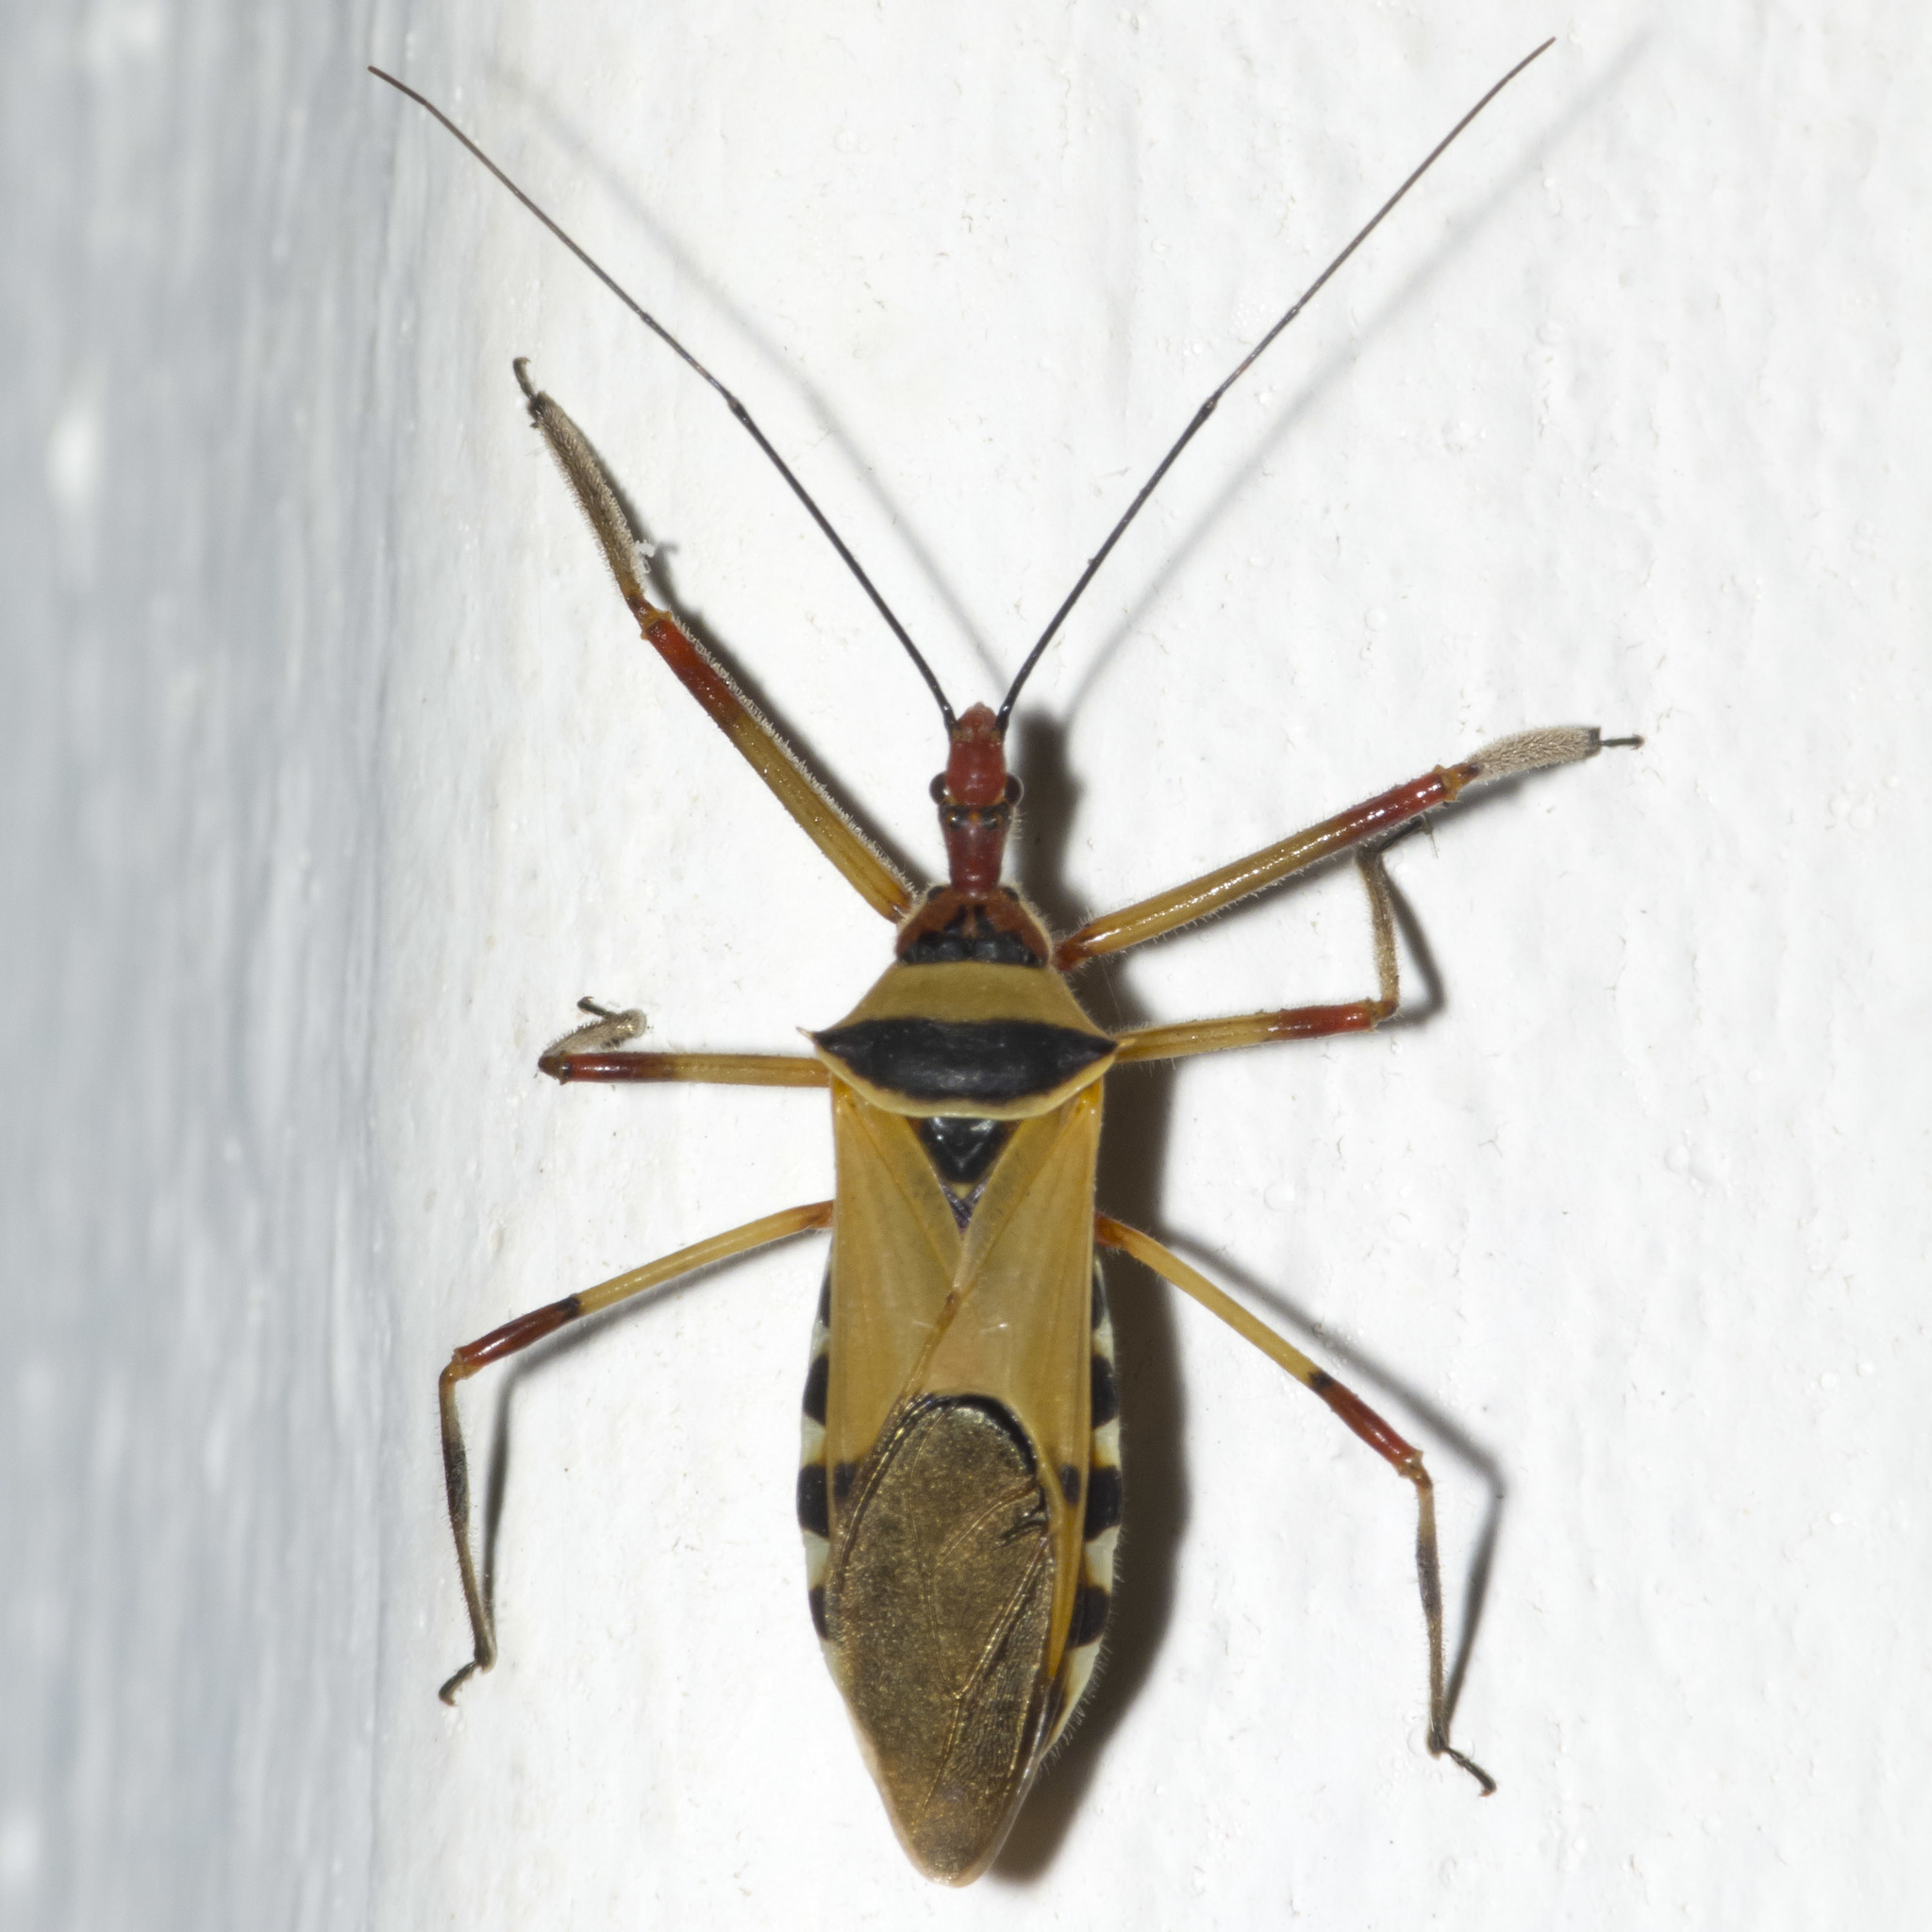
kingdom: Animalia
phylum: Arthropoda
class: Insecta
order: Hemiptera
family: Reduviidae
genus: Zelus
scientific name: Zelus ruficeps
